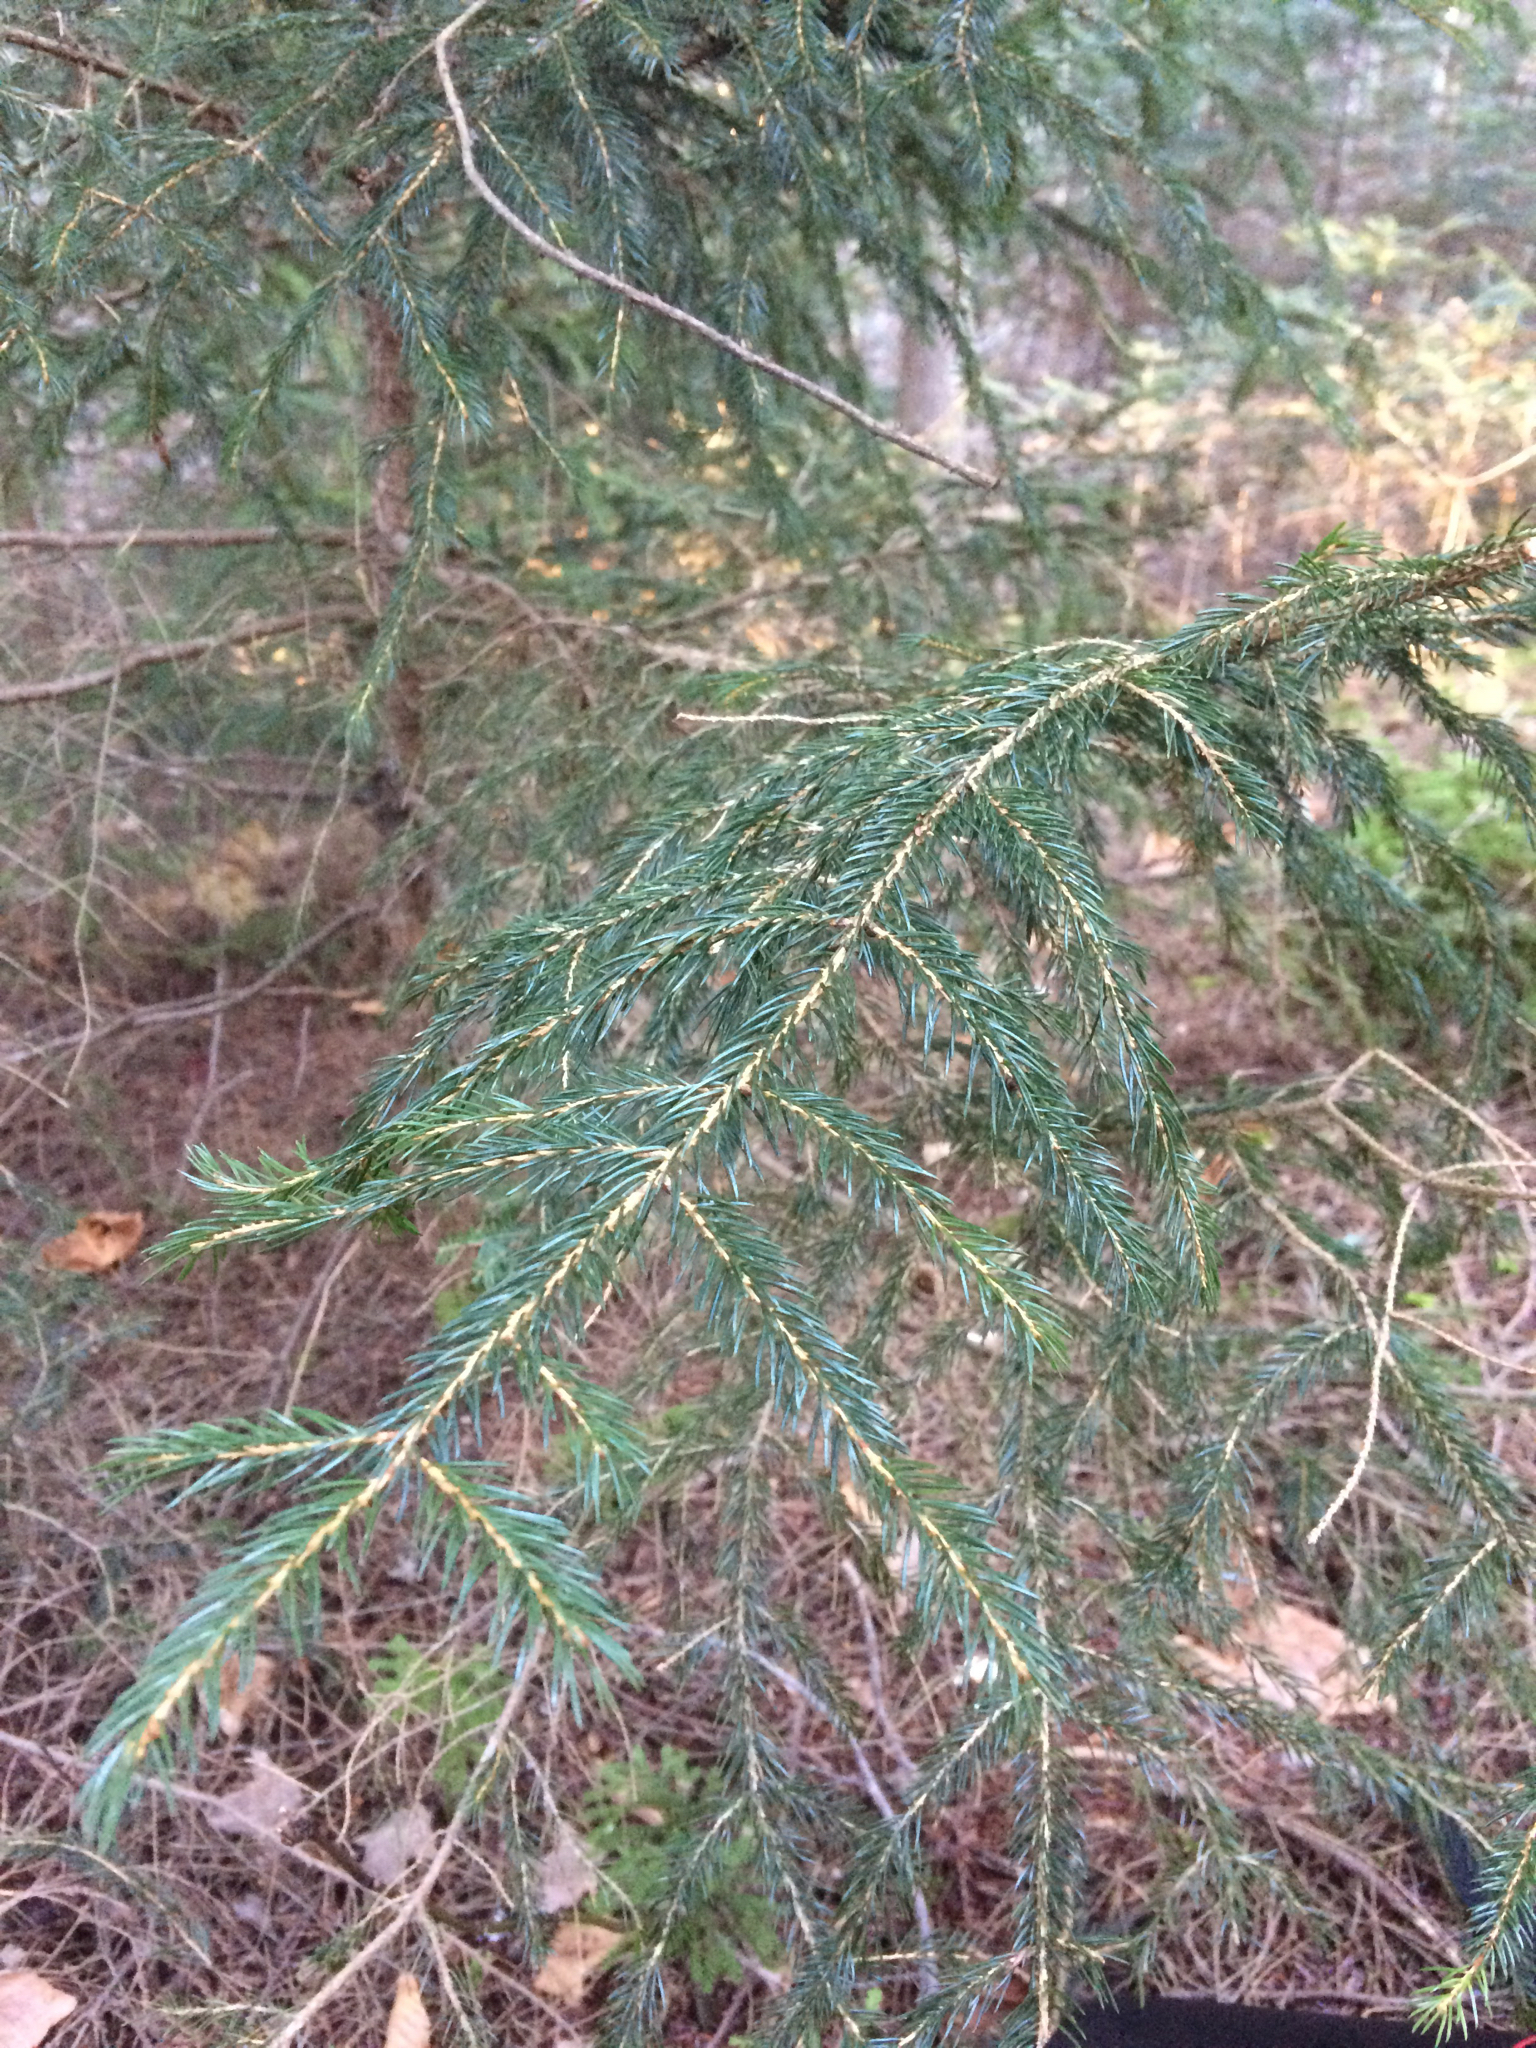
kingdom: Plantae
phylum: Tracheophyta
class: Pinopsida
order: Pinales
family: Pinaceae
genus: Picea
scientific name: Picea rubens
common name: Red spruce
